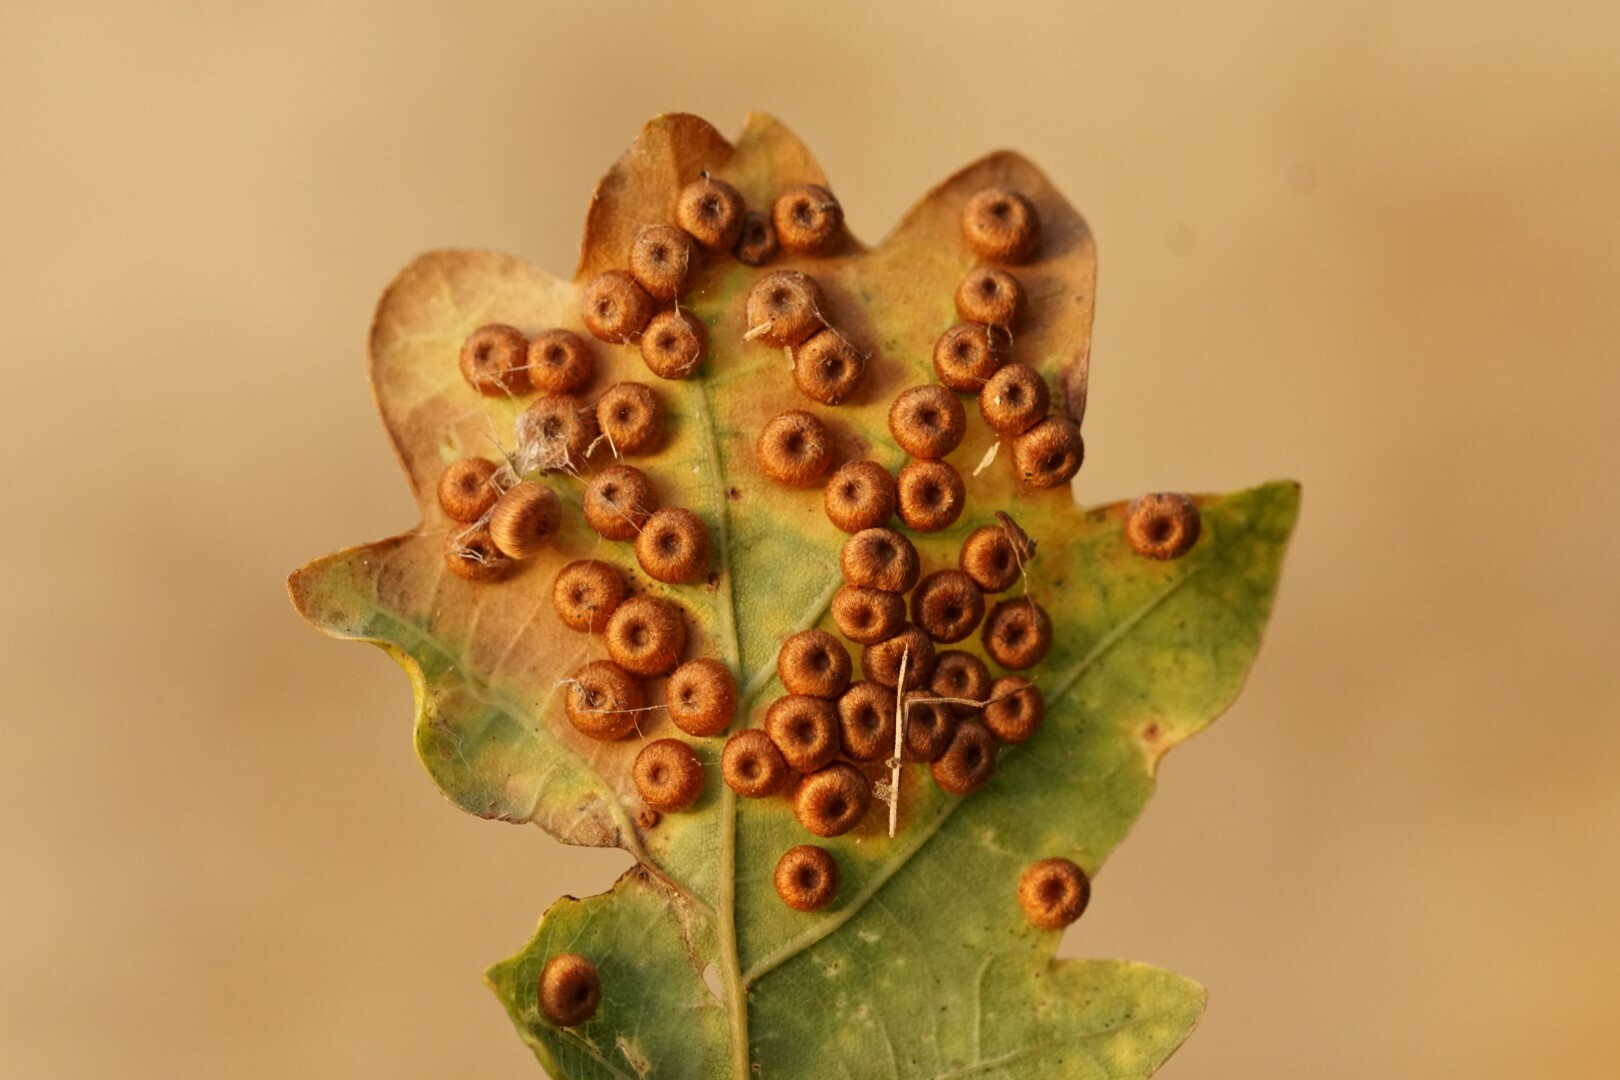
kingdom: Animalia
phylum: Arthropoda
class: Insecta
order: Hymenoptera
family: Cynipidae
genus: Neuroterus
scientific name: Neuroterus numismalis
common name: Silk-button spangle gall
